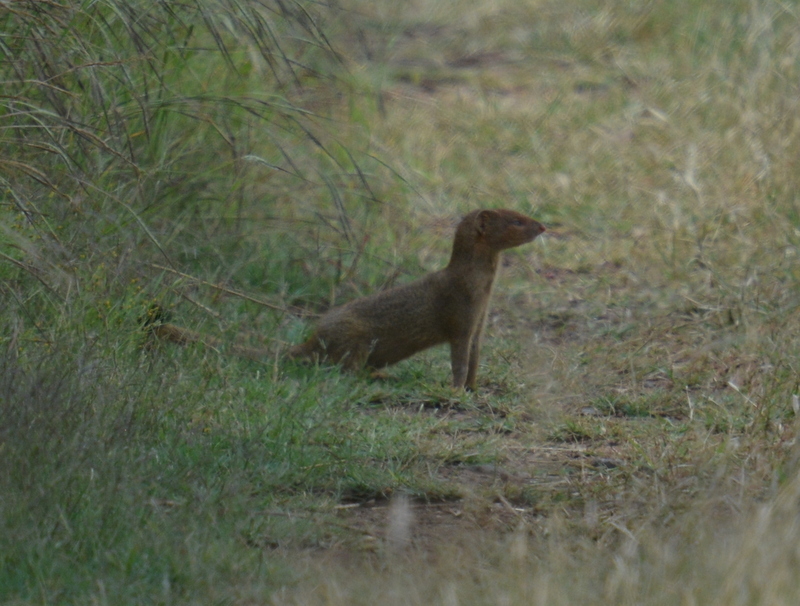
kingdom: Animalia
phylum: Chordata
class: Mammalia
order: Carnivora
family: Herpestidae
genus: Galerella
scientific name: Galerella sanguinea
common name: Slender mongoose
